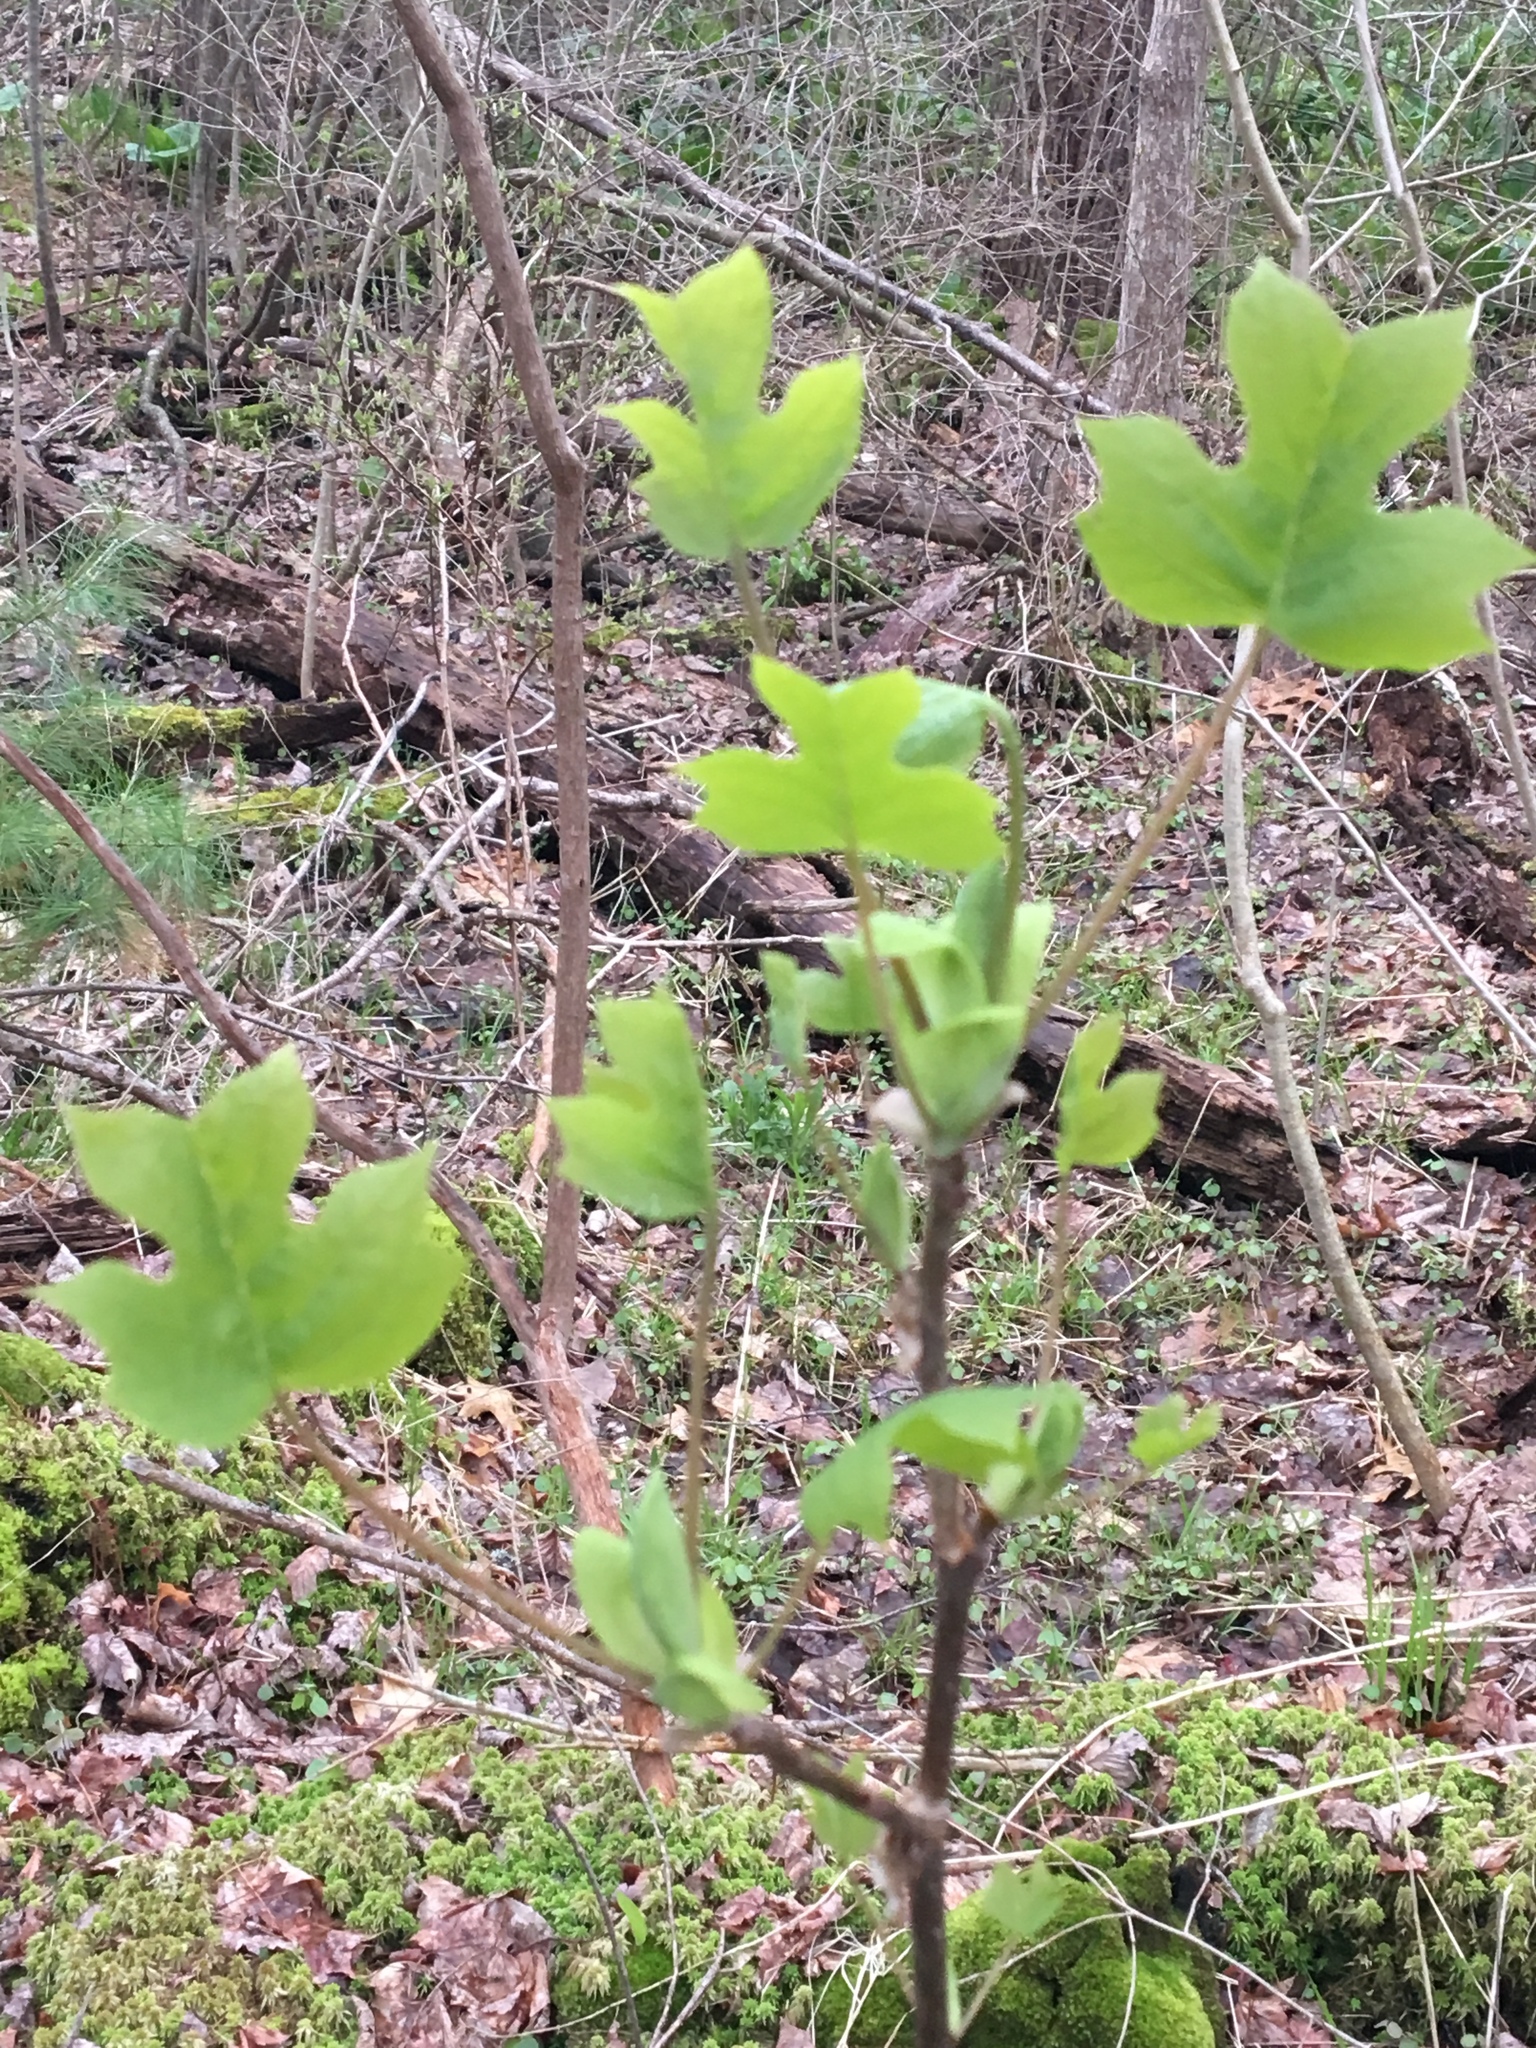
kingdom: Plantae
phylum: Tracheophyta
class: Magnoliopsida
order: Magnoliales
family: Magnoliaceae
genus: Liriodendron
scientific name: Liriodendron tulipifera
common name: Tulip tree
